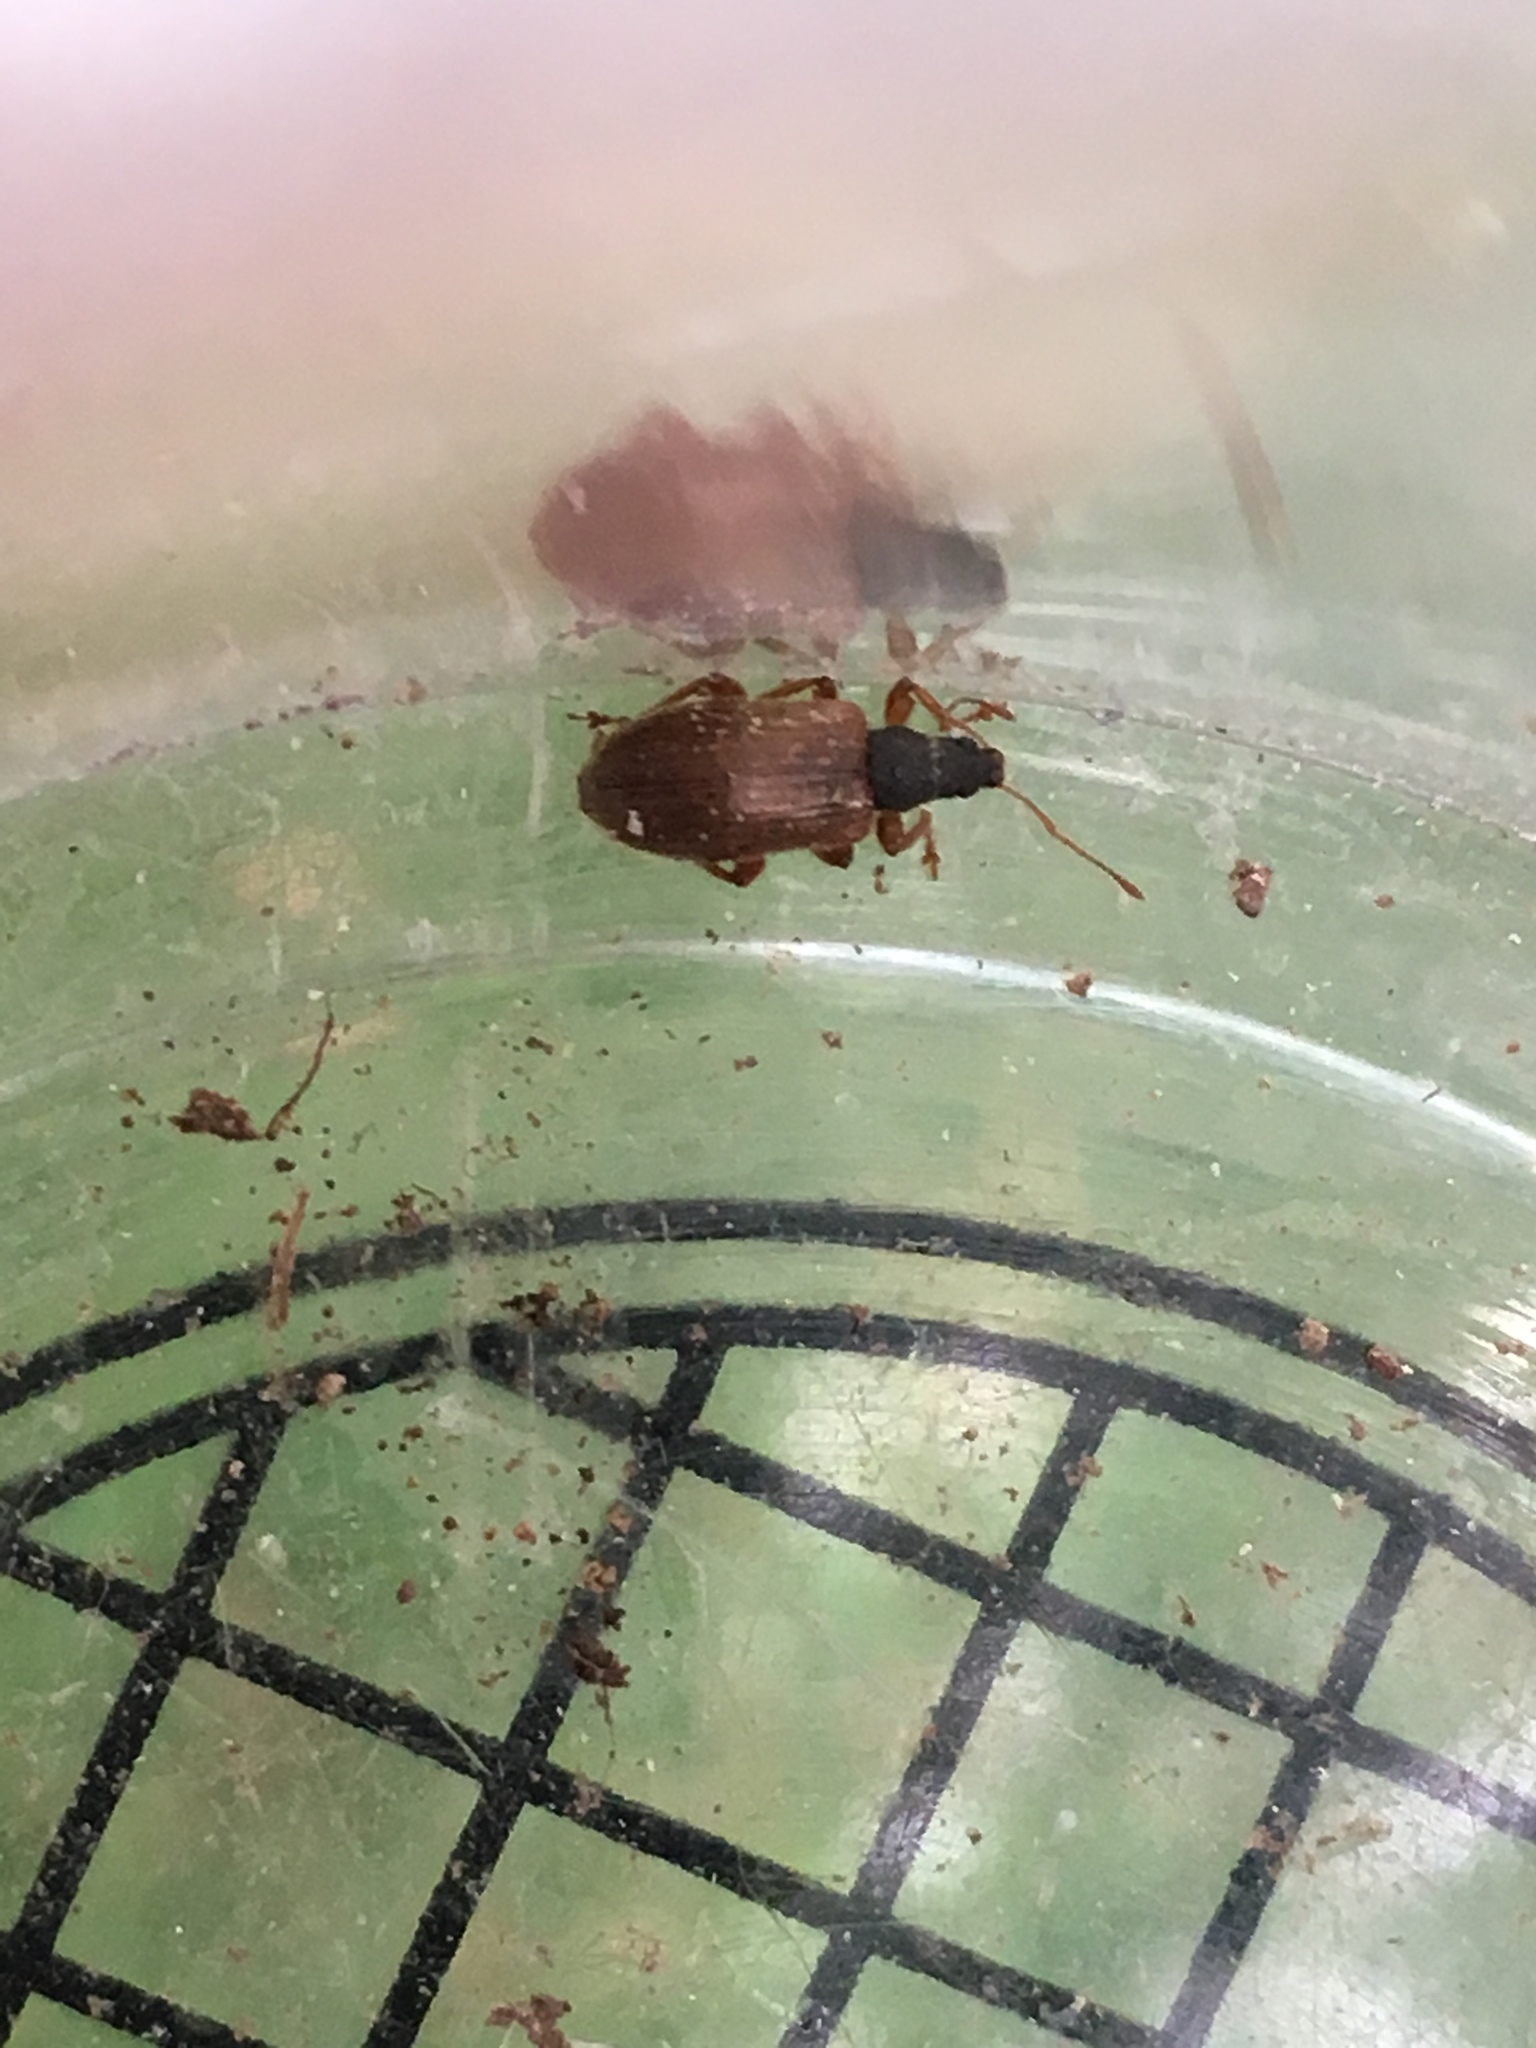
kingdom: Animalia
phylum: Arthropoda
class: Insecta
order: Coleoptera
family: Curculionidae
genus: Phyllobius
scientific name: Phyllobius oblongus
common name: Brown leaf weevil
